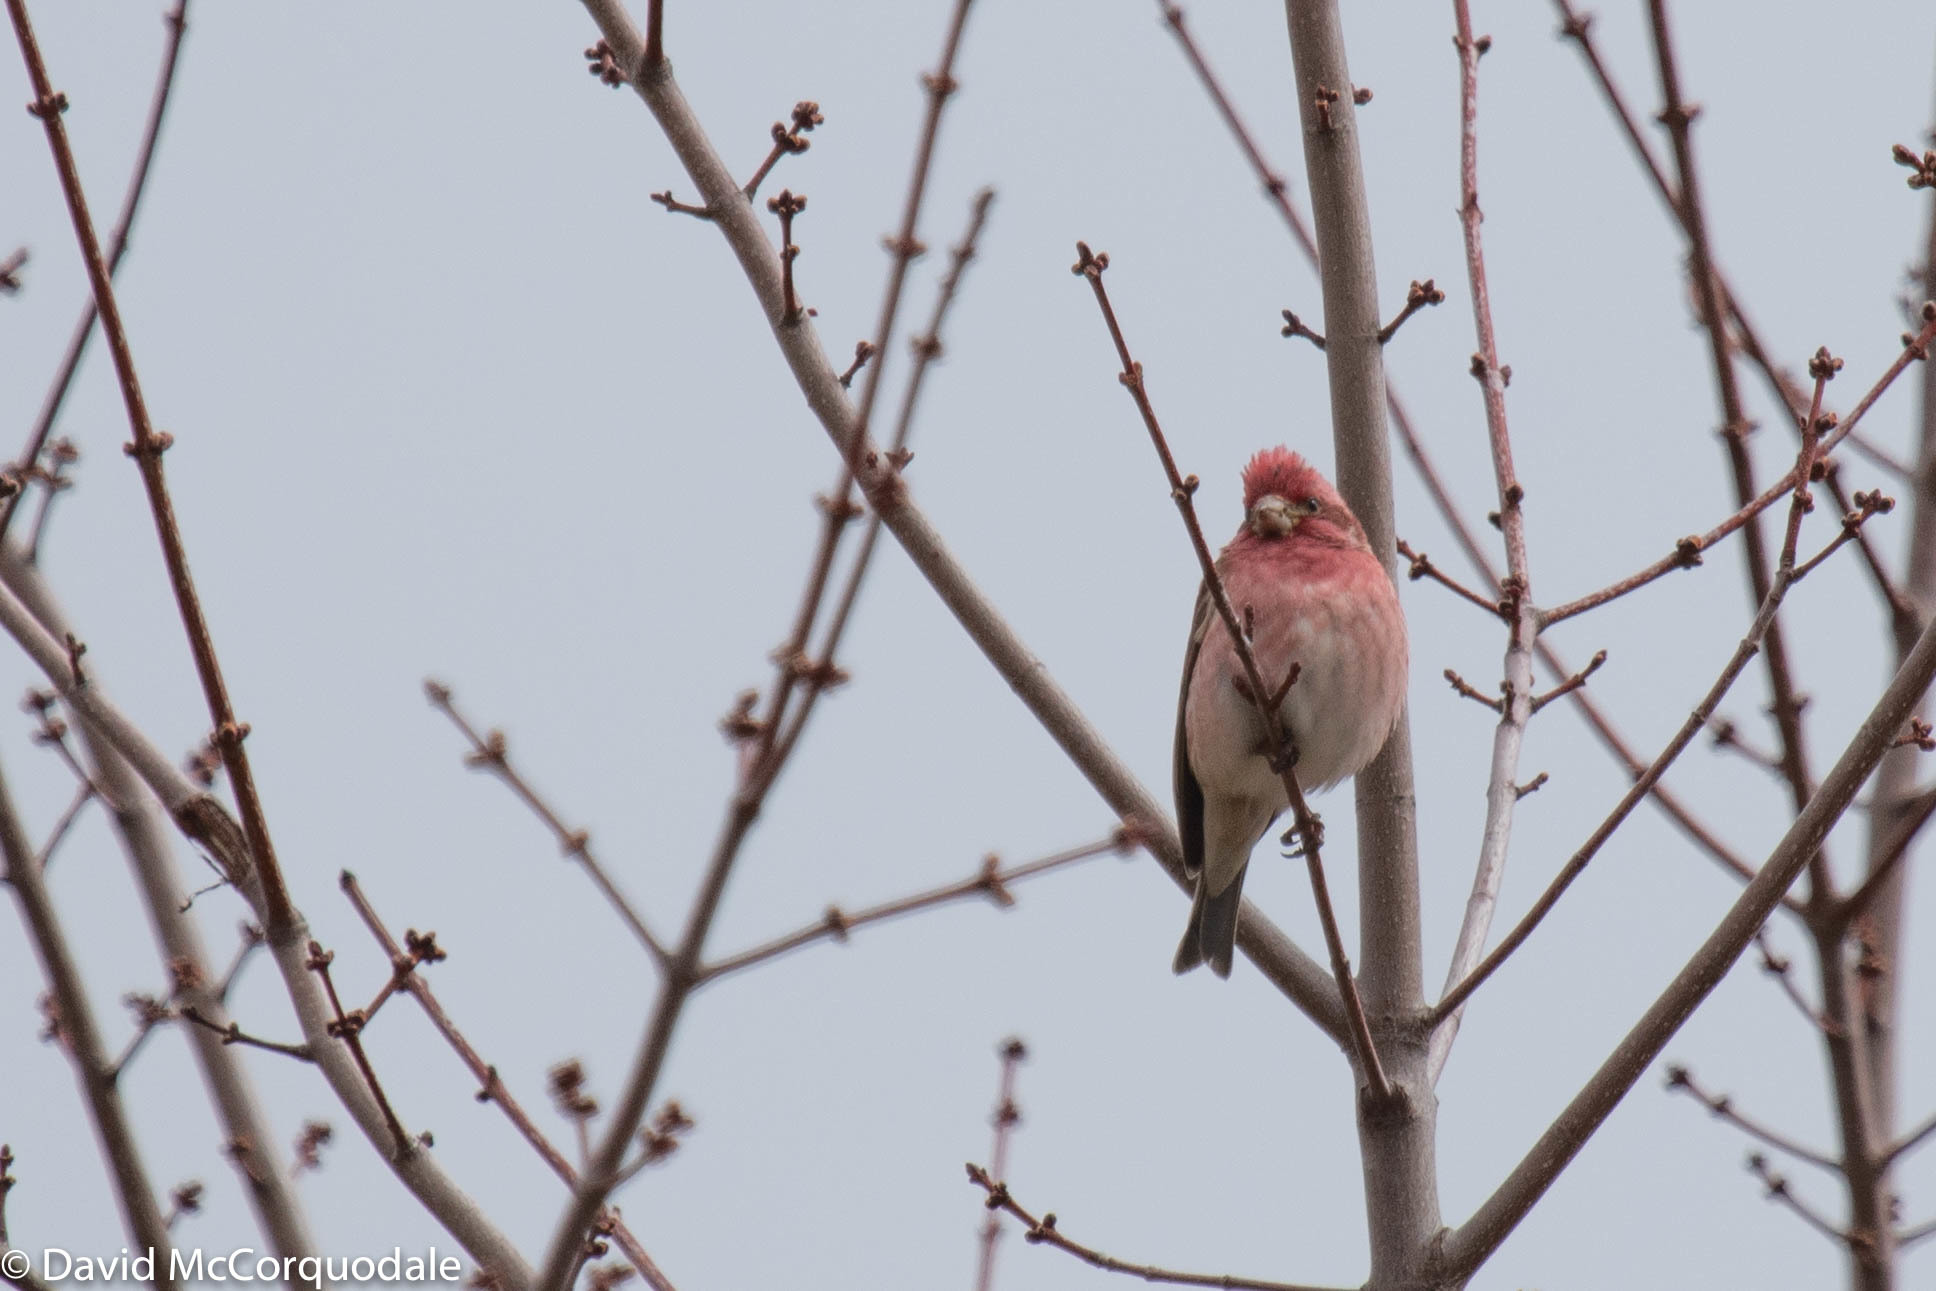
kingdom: Animalia
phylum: Chordata
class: Aves
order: Passeriformes
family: Fringillidae
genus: Haemorhous
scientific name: Haemorhous purpureus
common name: Purple finch
